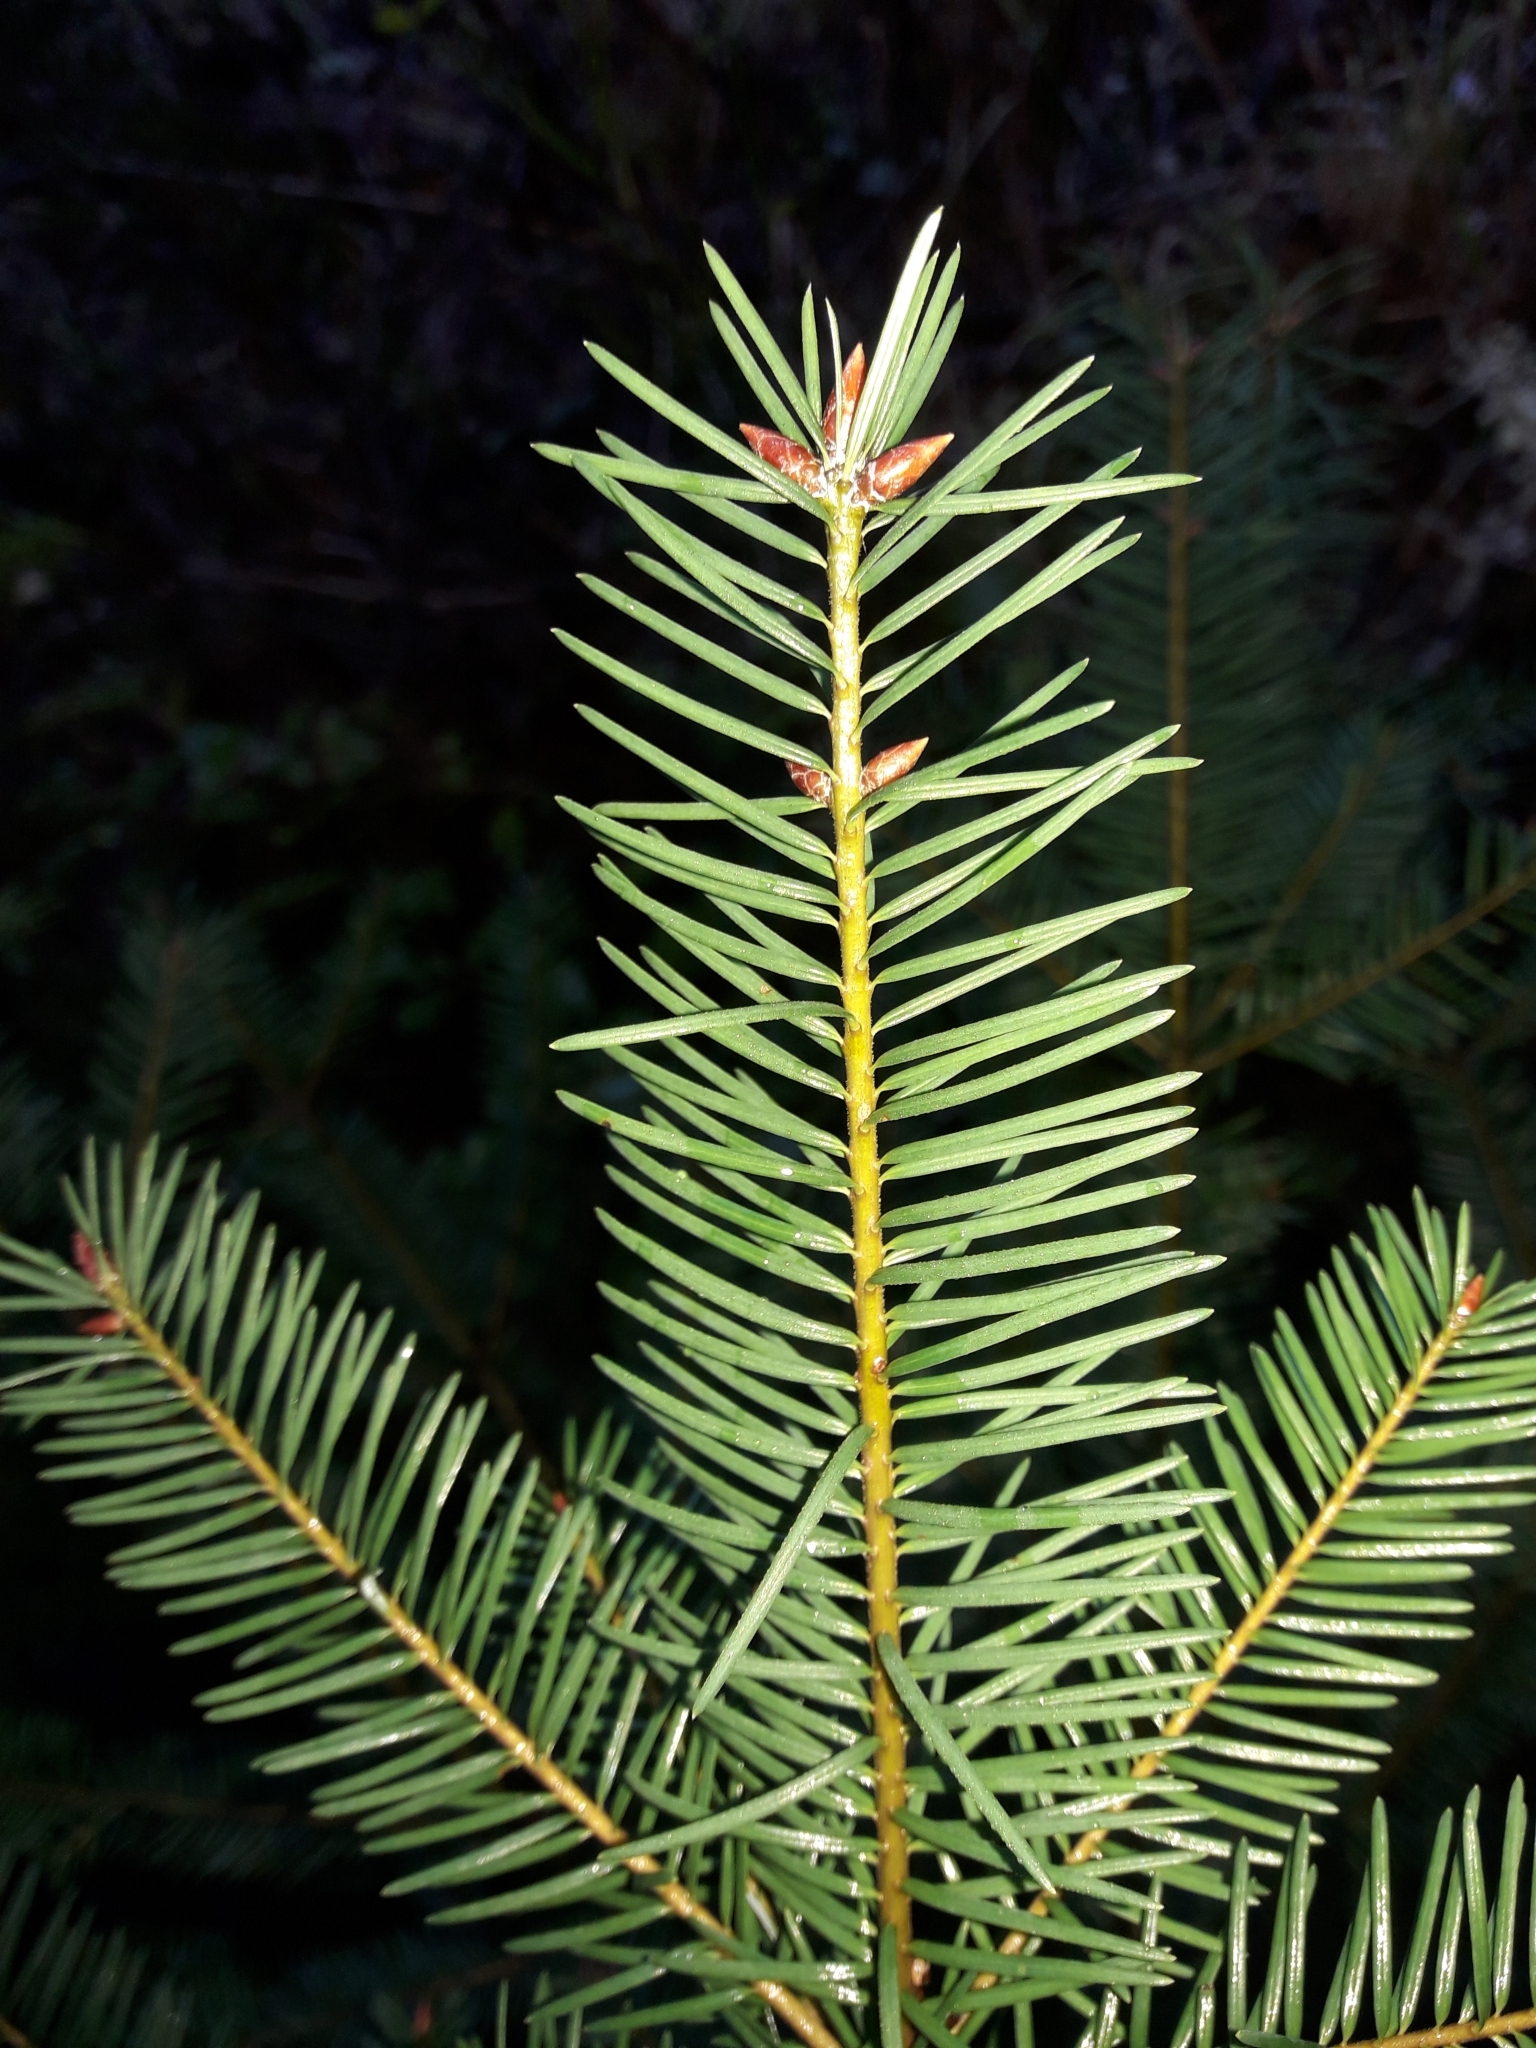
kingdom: Plantae
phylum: Tracheophyta
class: Pinopsida
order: Pinales
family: Pinaceae
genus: Pseudotsuga
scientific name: Pseudotsuga menziesii
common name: Douglas fir
